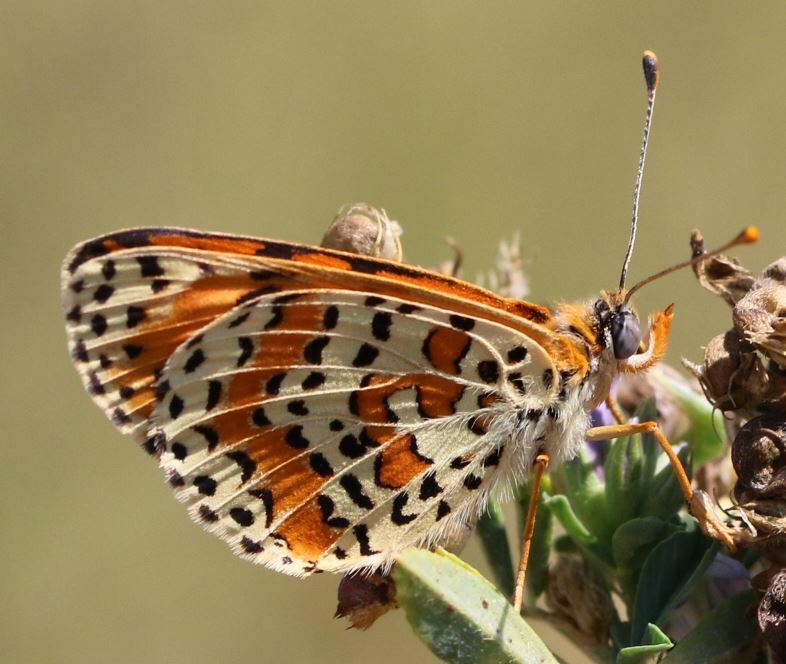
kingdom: Animalia
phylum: Arthropoda
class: Insecta
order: Lepidoptera
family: Nymphalidae
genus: Melitaea
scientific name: Melitaea didyma
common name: Spotted fritillary
